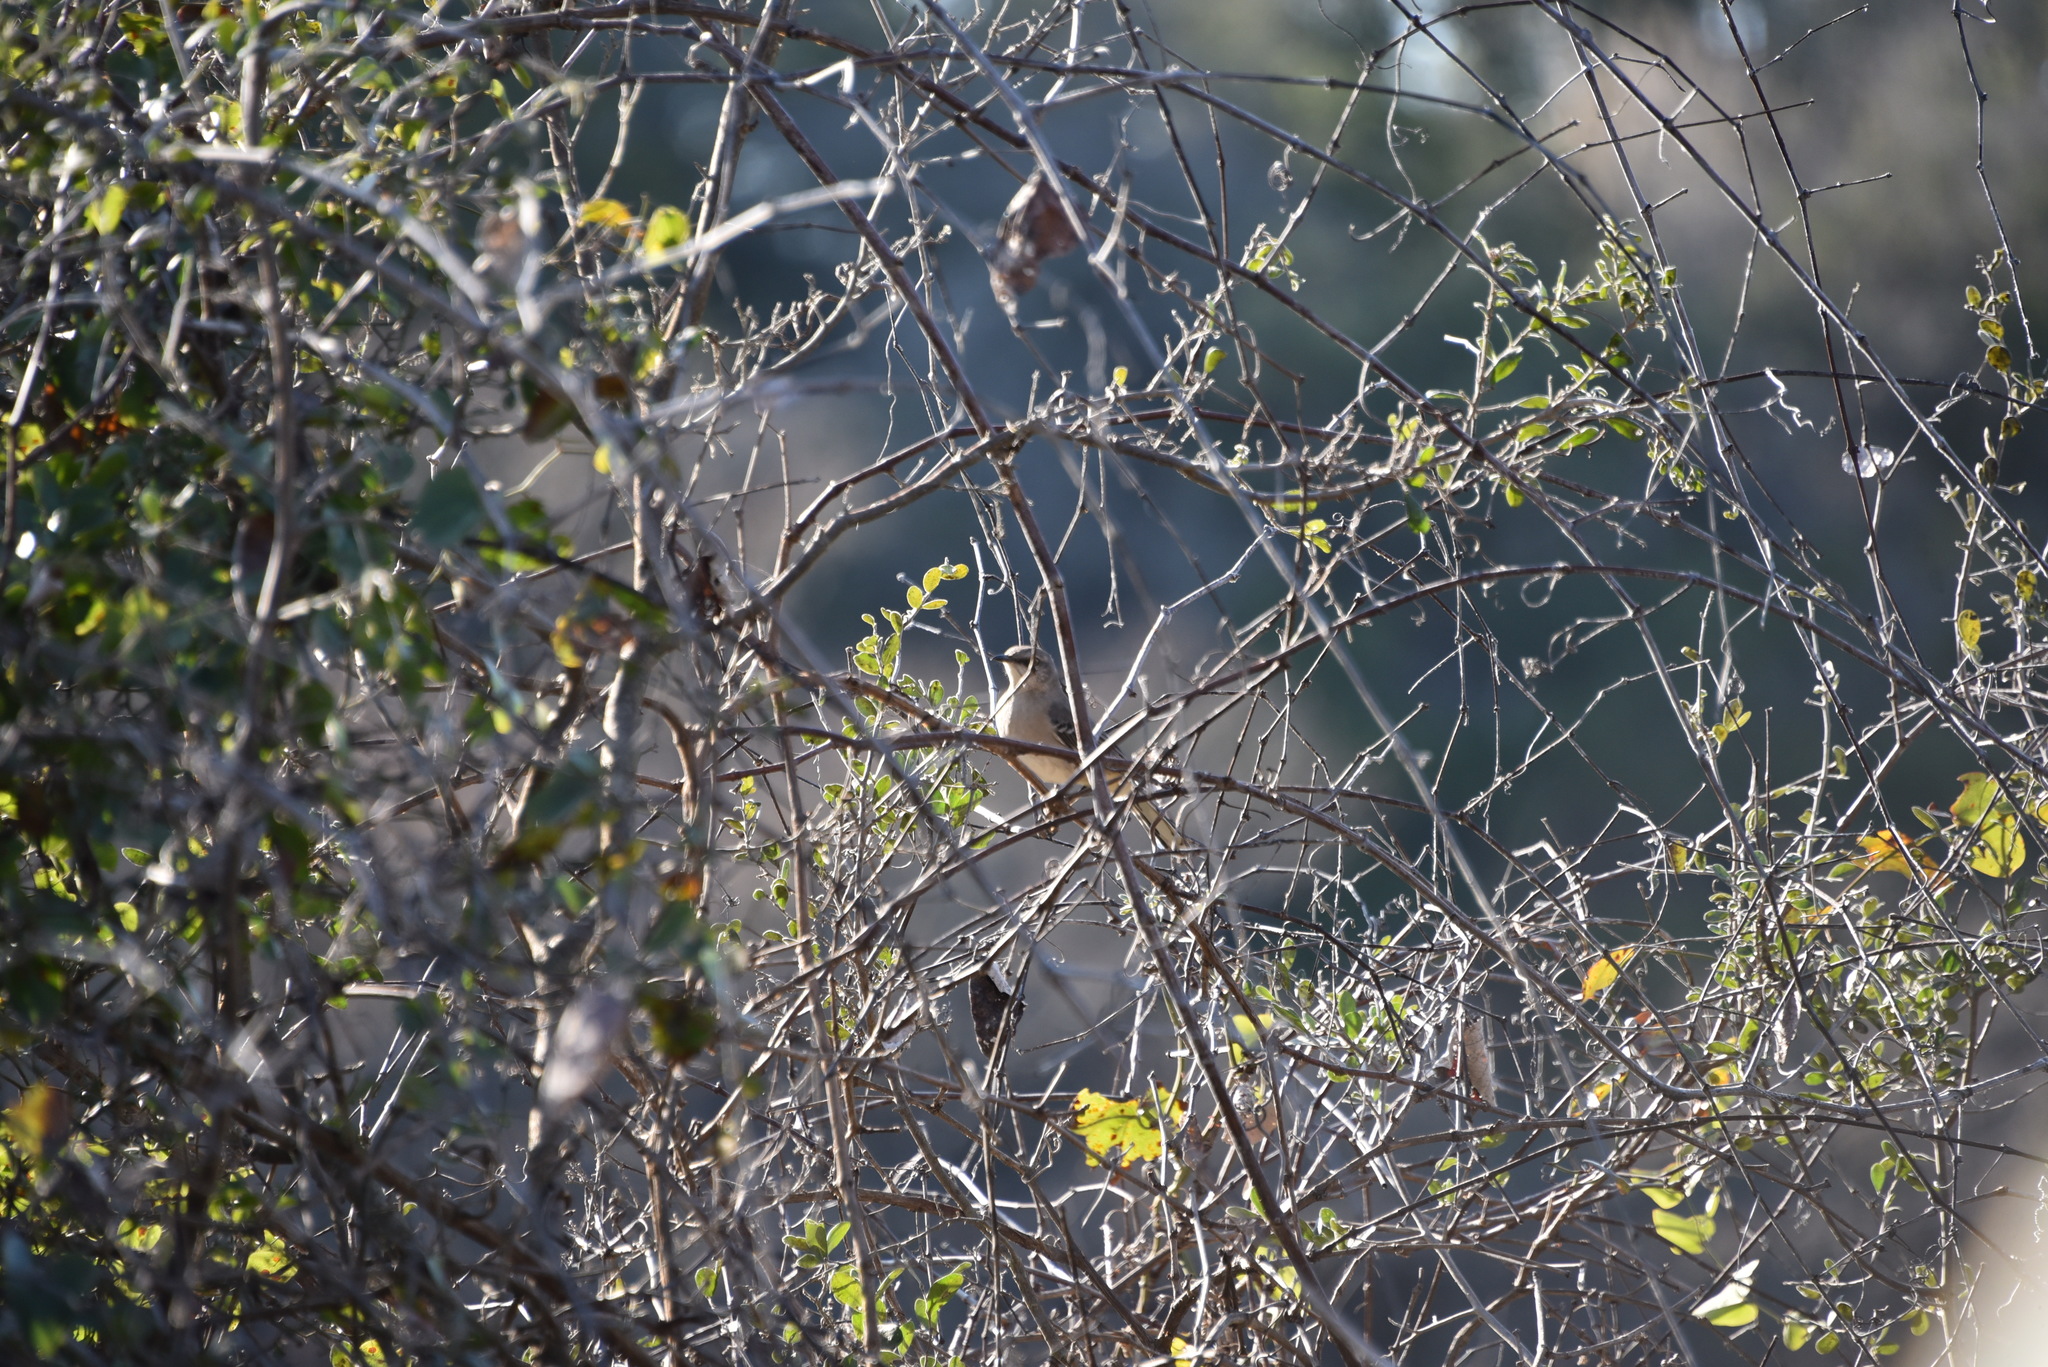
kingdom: Animalia
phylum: Chordata
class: Aves
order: Passeriformes
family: Mimidae
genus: Mimus
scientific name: Mimus polyglottos
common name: Northern mockingbird
